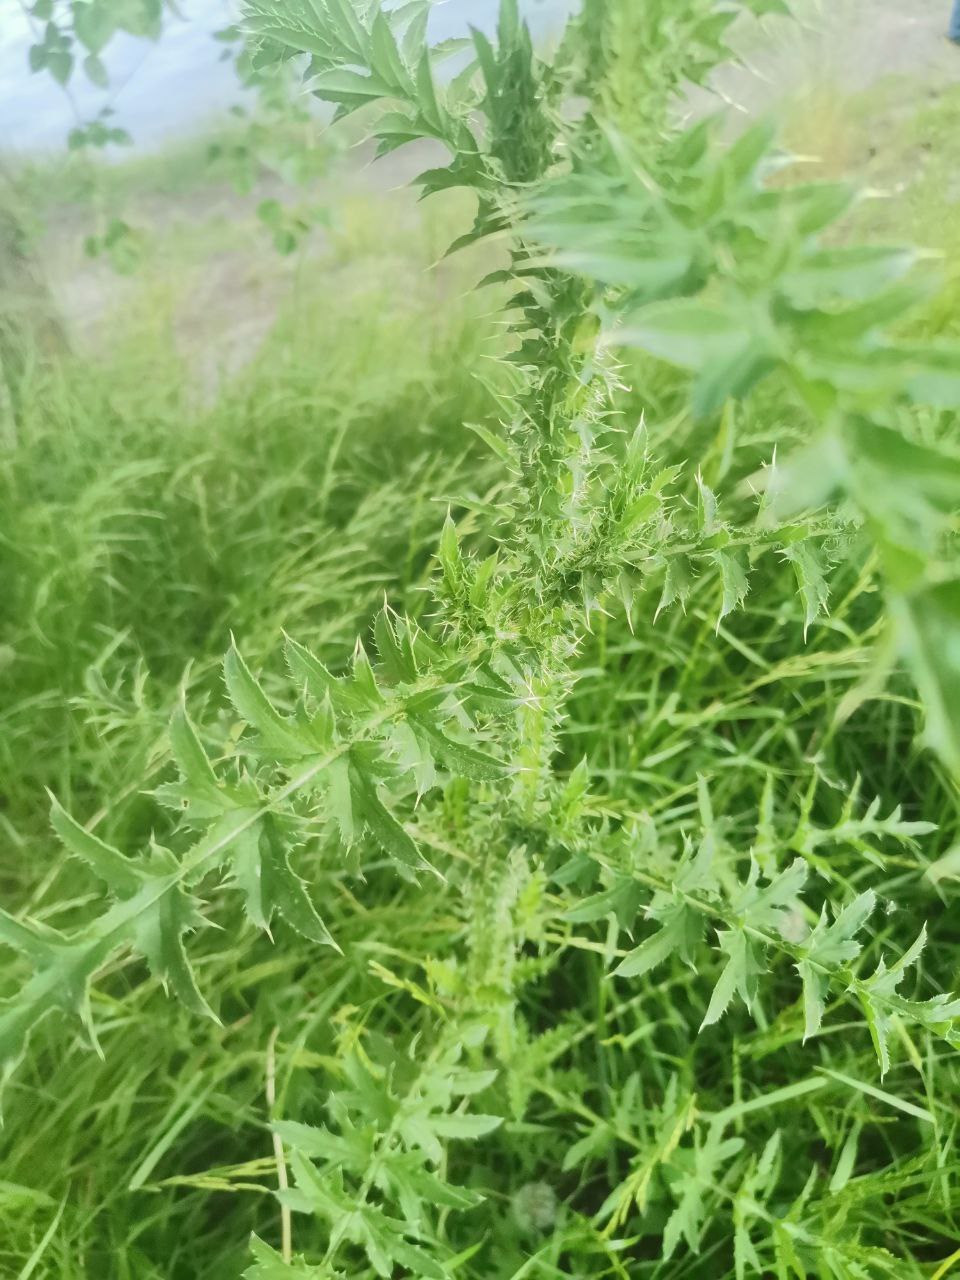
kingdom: Plantae
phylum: Tracheophyta
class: Magnoliopsida
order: Asterales
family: Asteraceae
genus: Carduus
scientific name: Carduus acanthoides
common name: Plumeless thistle
